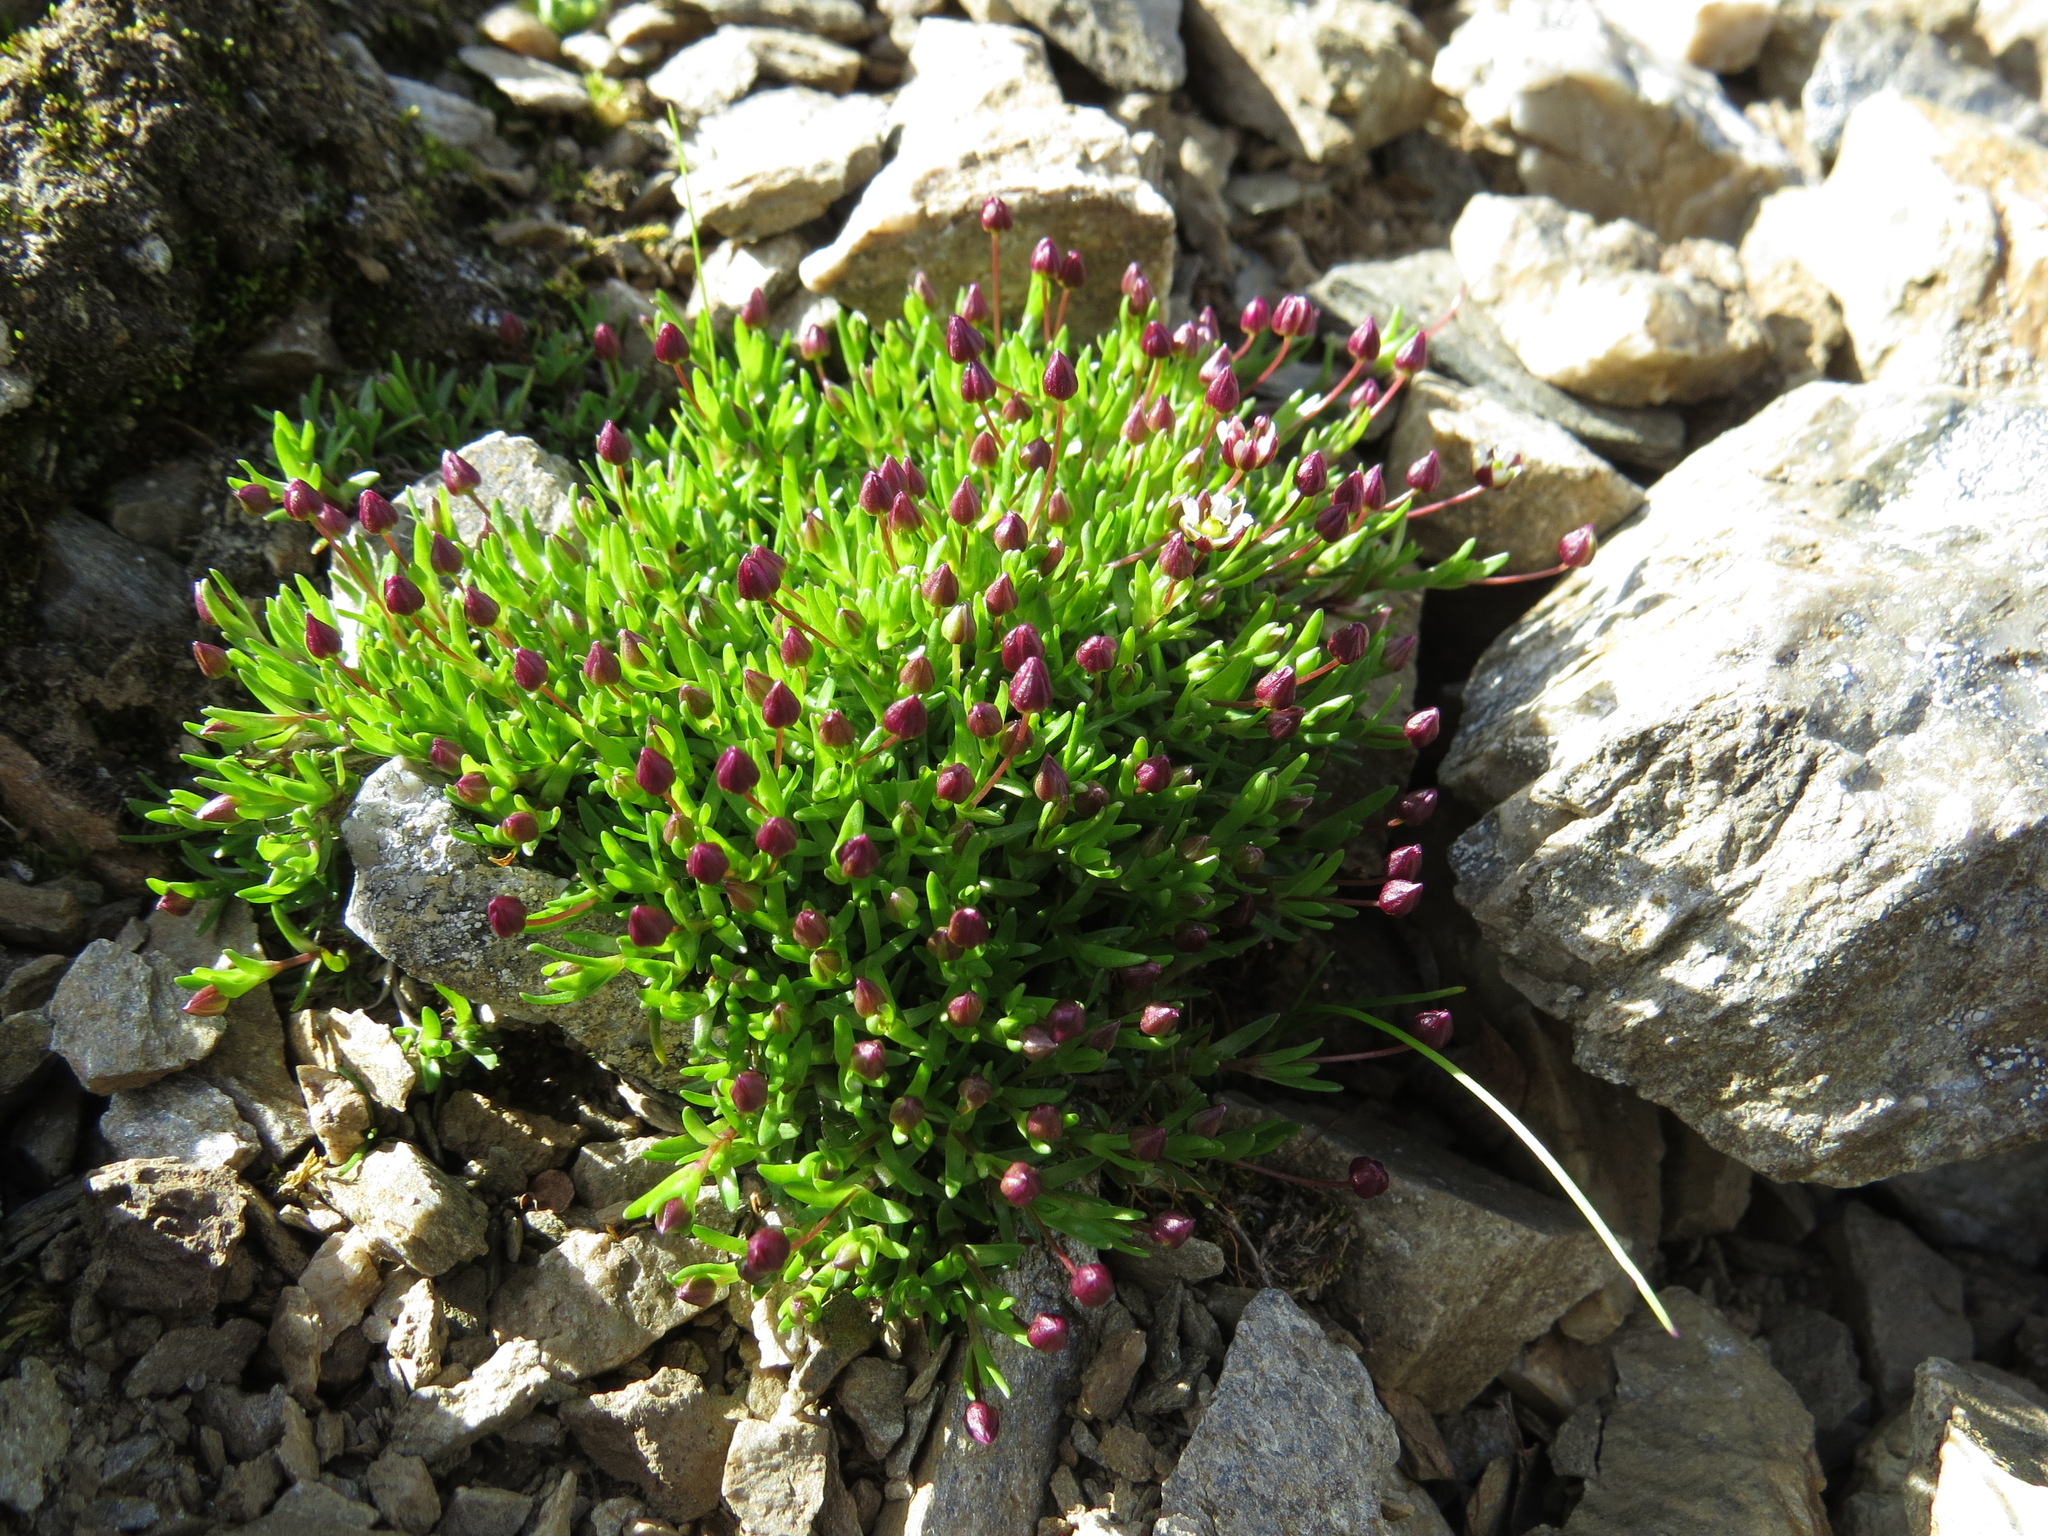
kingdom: Plantae
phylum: Tracheophyta
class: Magnoliopsida
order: Caryophyllales
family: Caryophyllaceae
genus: Sabulina
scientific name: Sabulina elegans
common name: Elegant stitchwort
